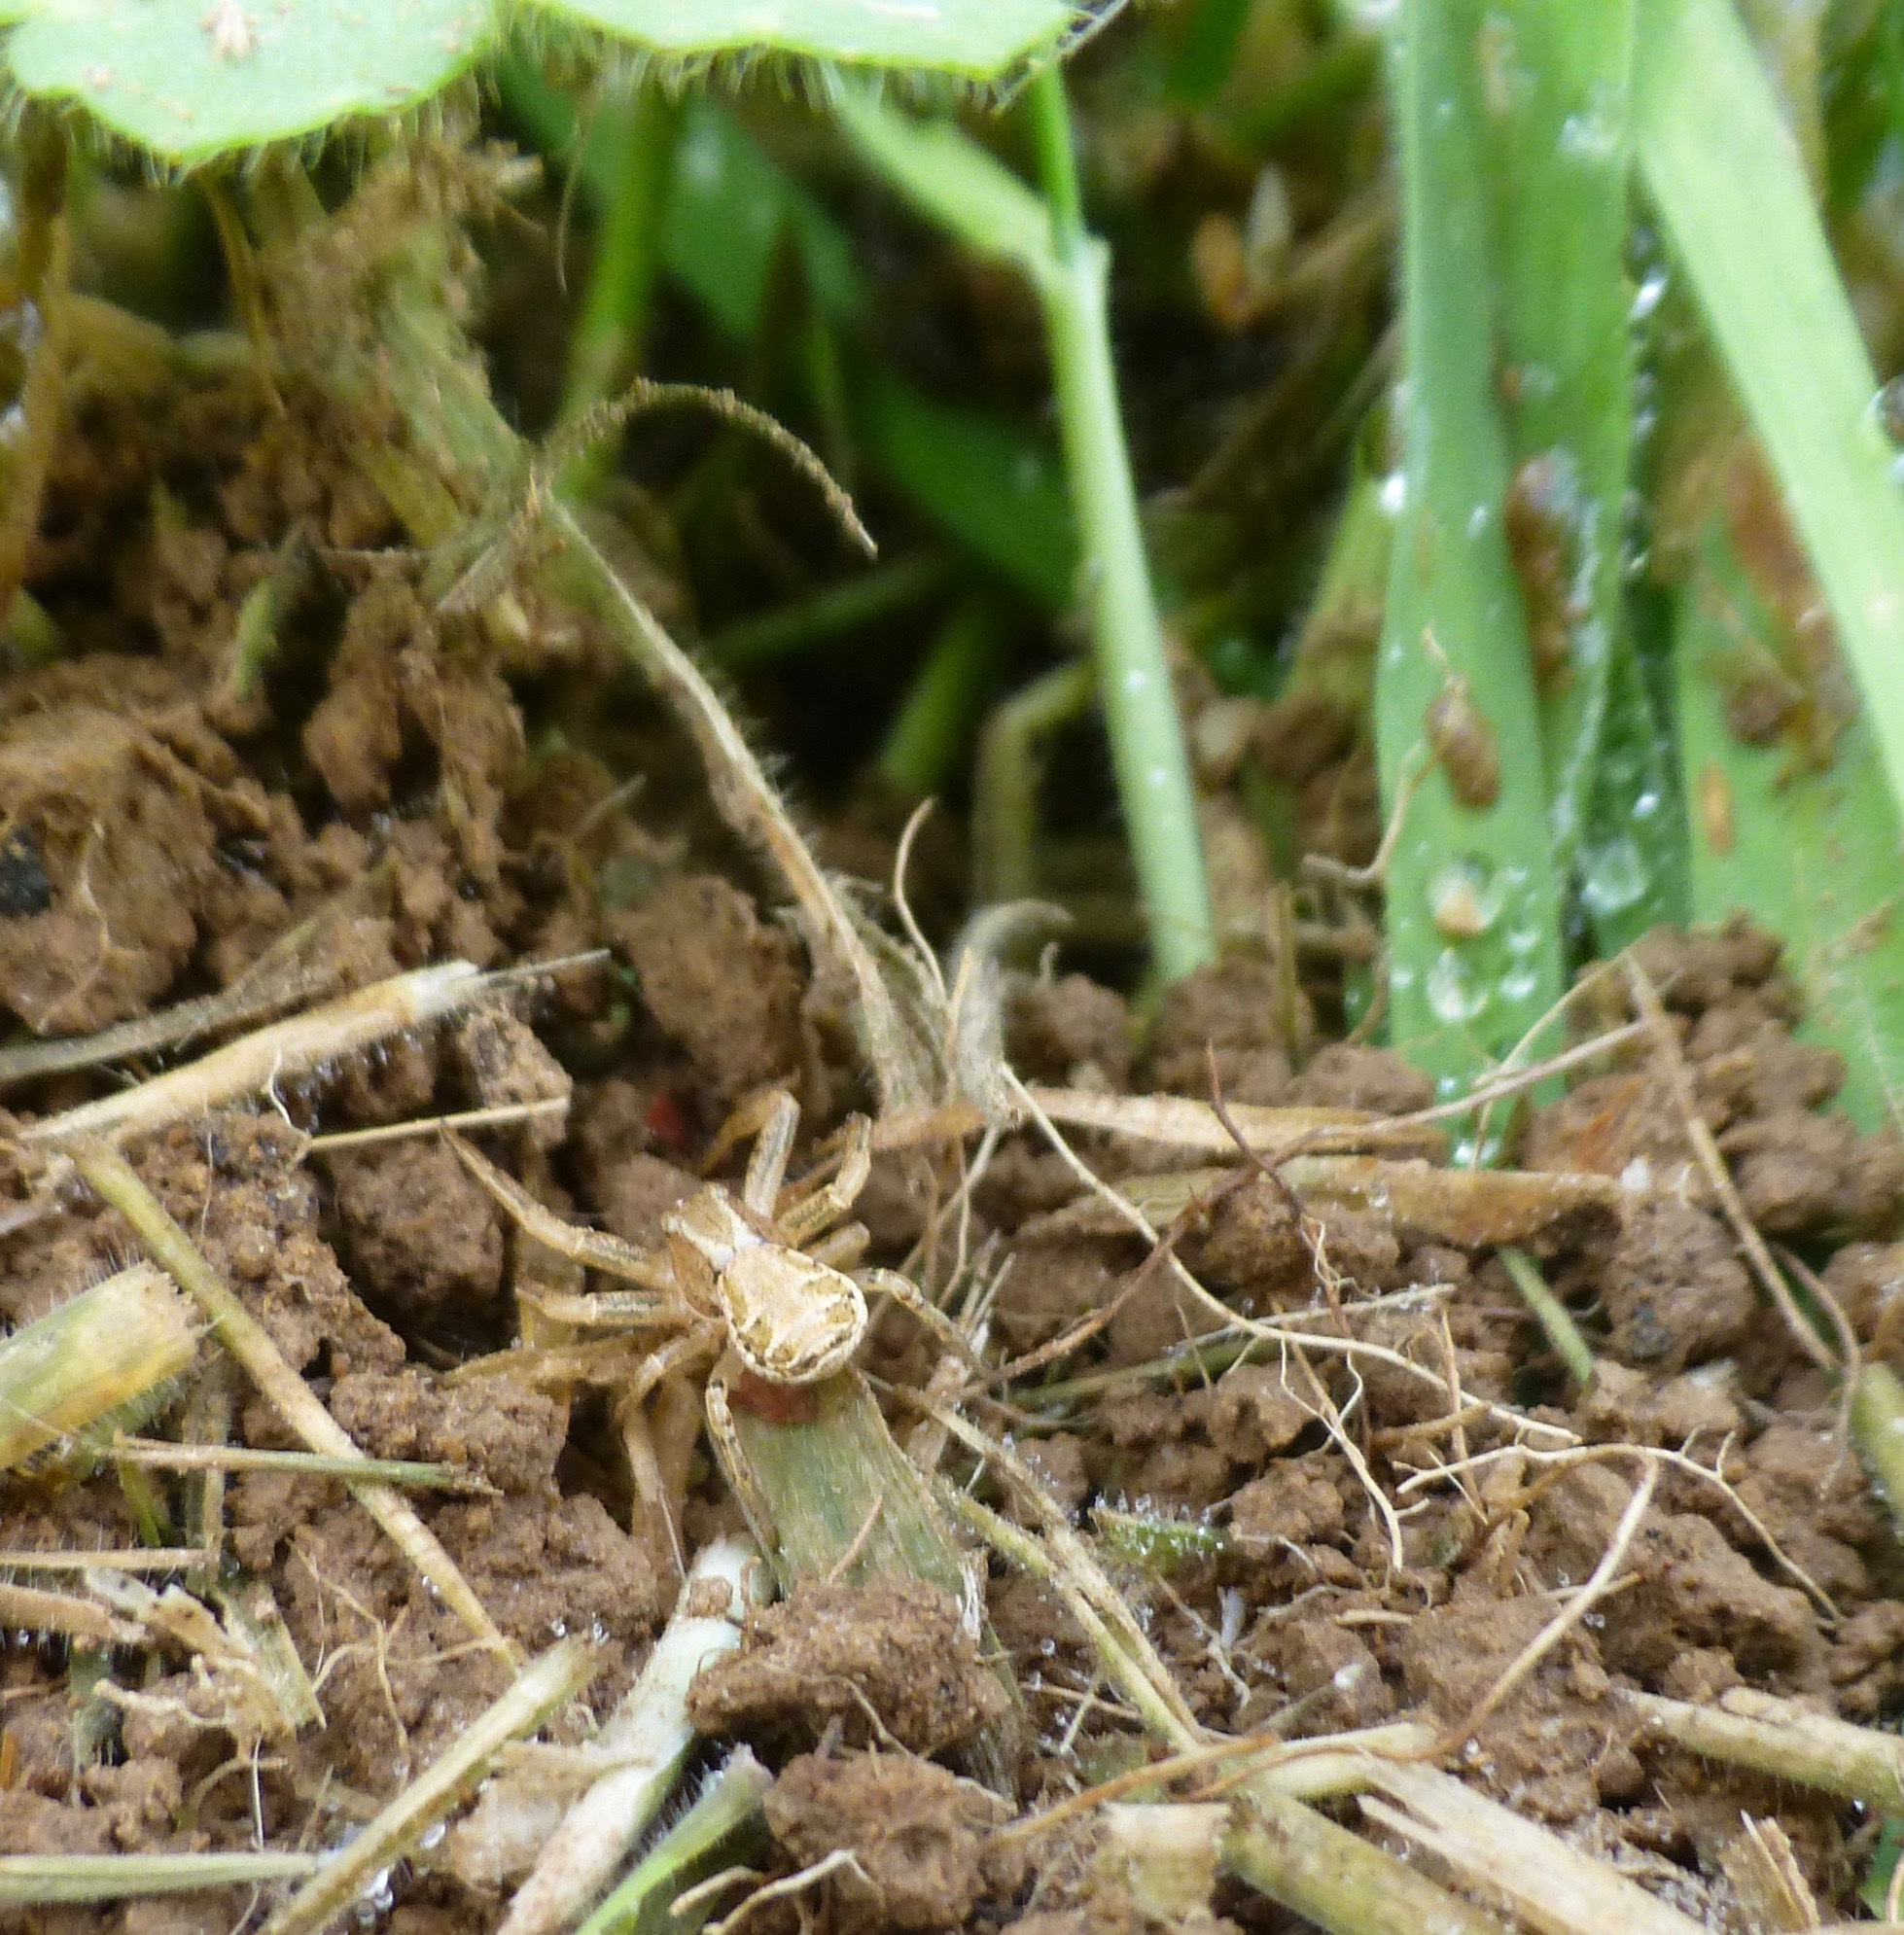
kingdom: Animalia
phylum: Arthropoda
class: Arachnida
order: Araneae
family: Thomisidae
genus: Xysticus
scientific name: Xysticus
